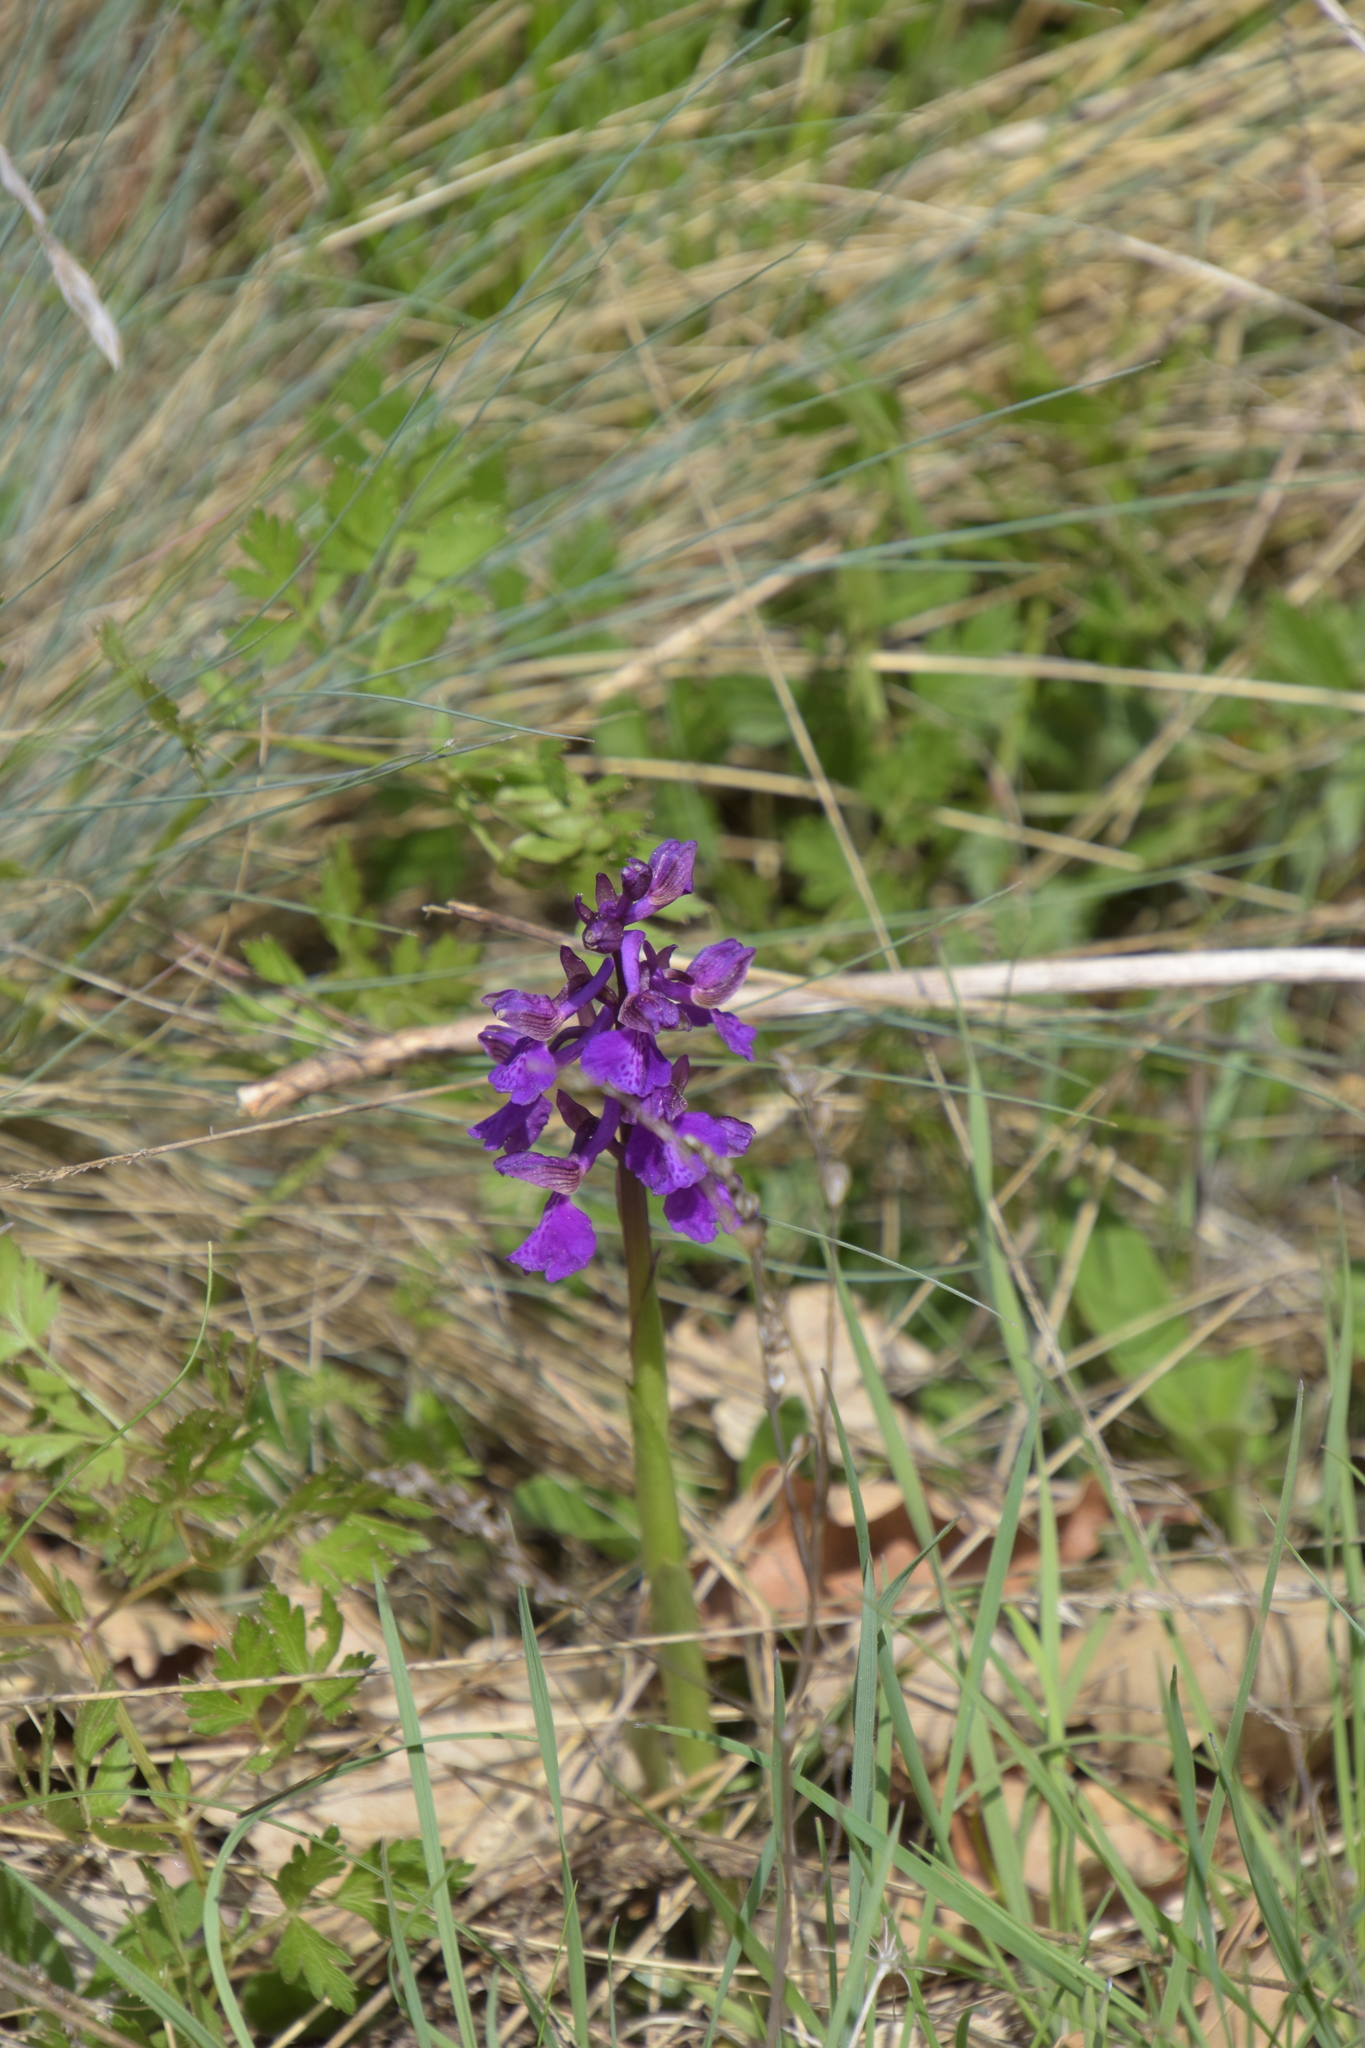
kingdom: Plantae
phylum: Tracheophyta
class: Liliopsida
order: Asparagales
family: Orchidaceae
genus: Anacamptis
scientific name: Anacamptis morio
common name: Green-winged orchid
